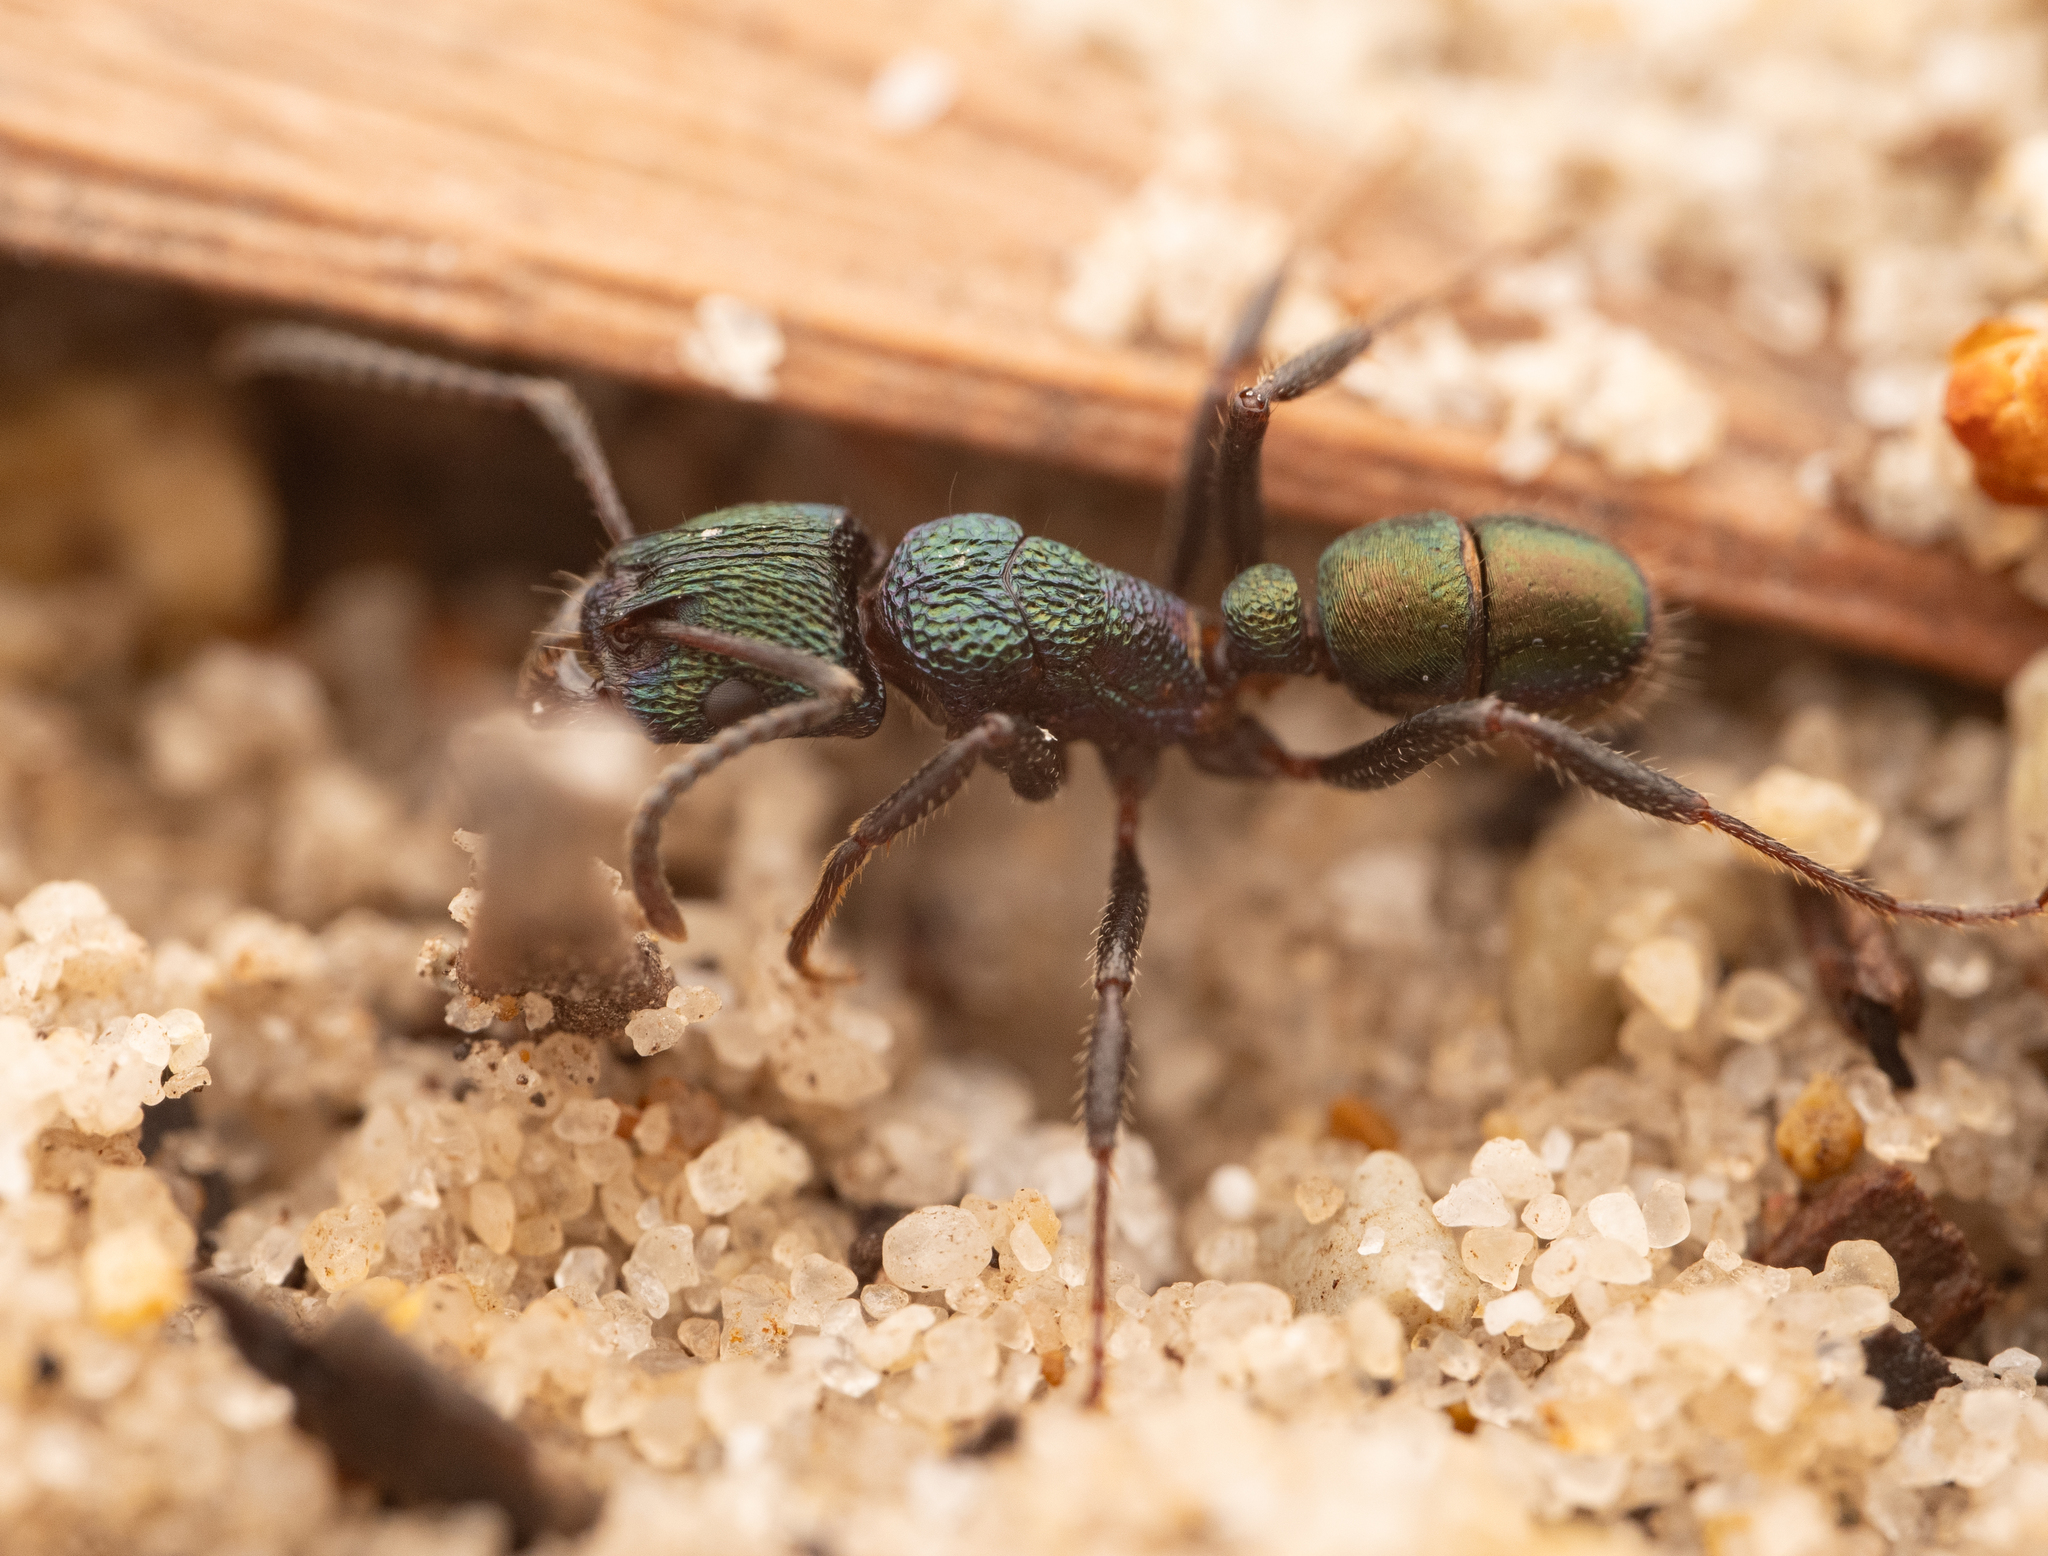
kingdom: Animalia
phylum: Arthropoda
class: Insecta
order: Hymenoptera
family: Formicidae
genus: Rhytidoponera
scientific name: Rhytidoponera metallica
